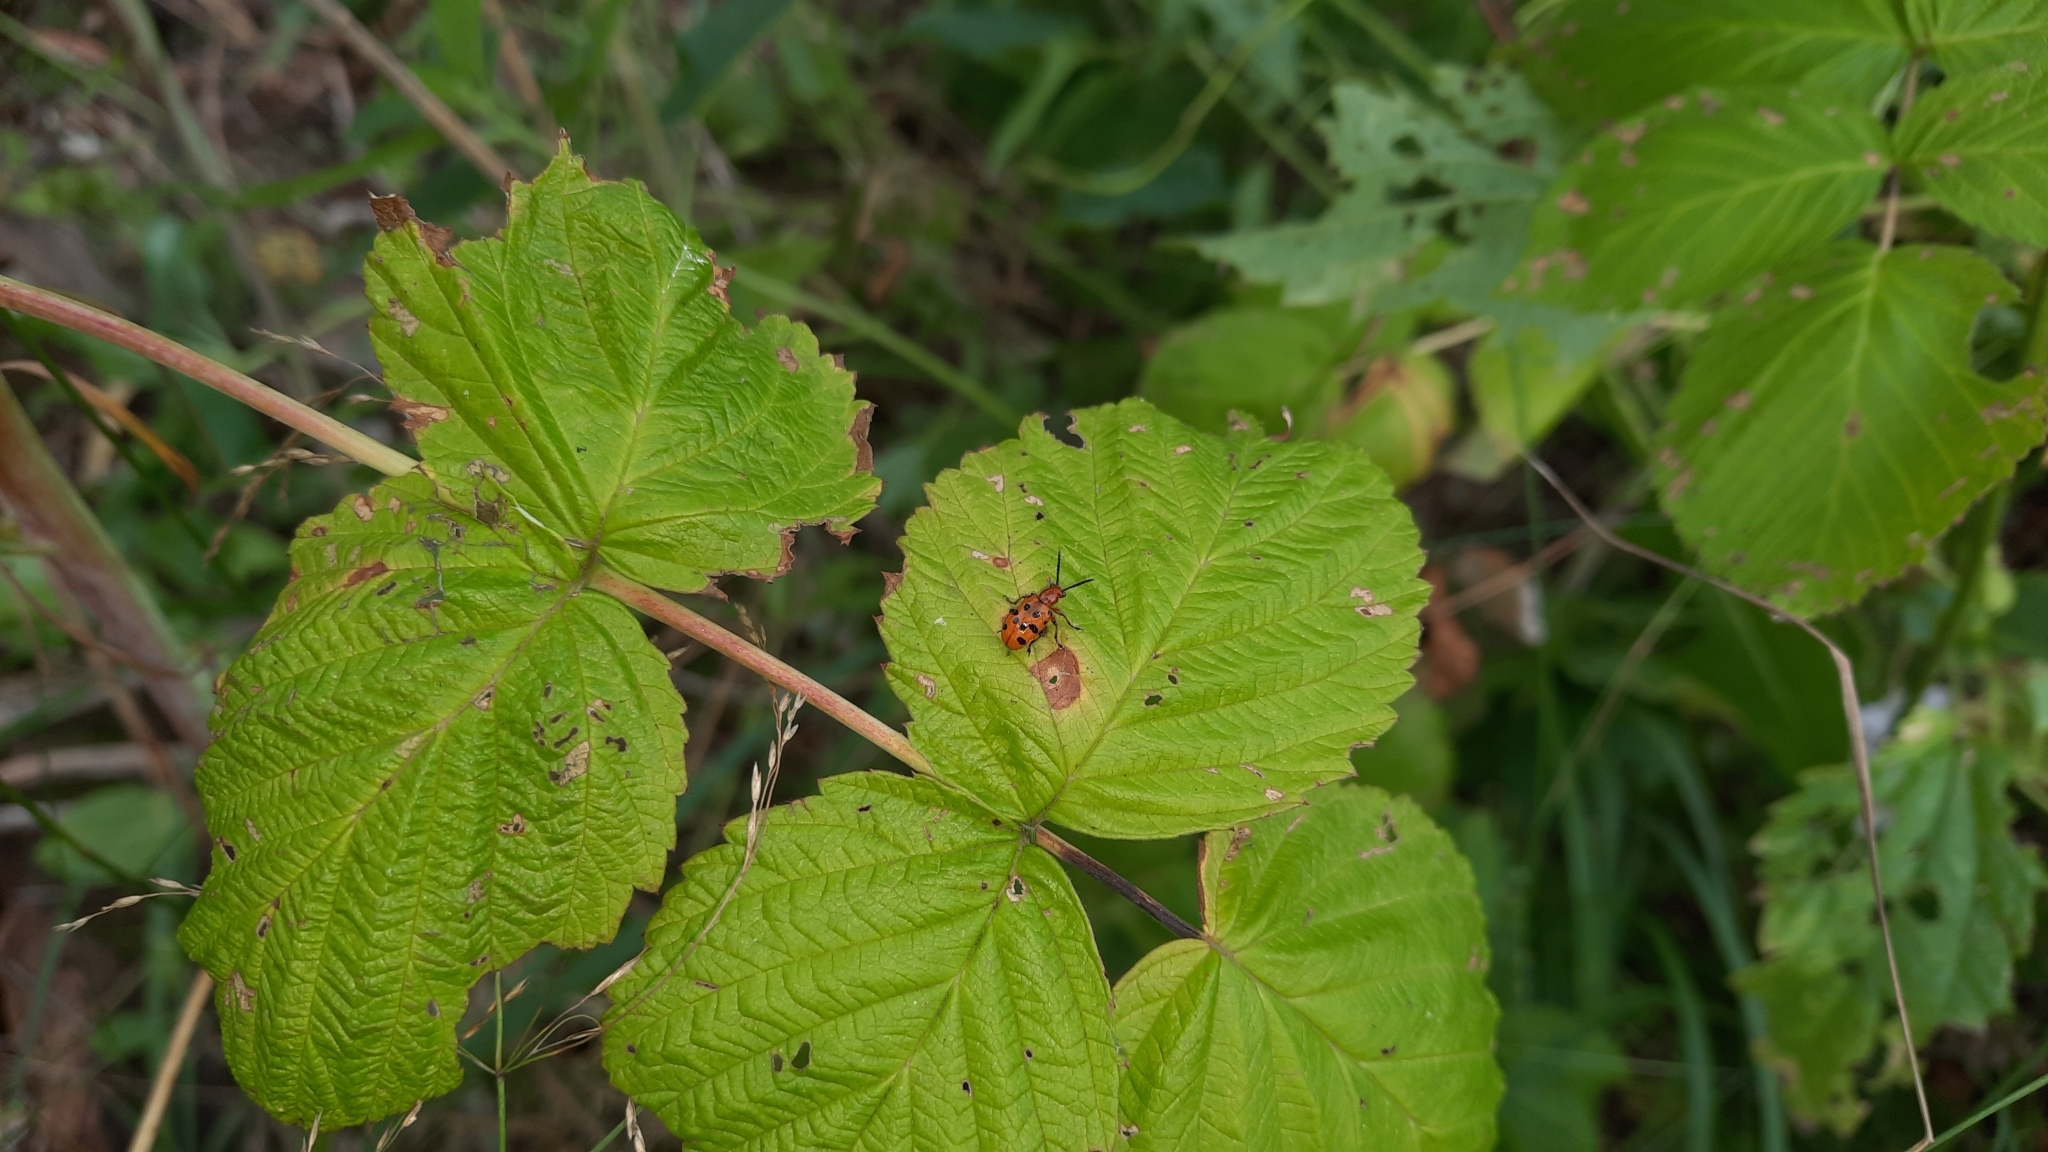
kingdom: Animalia
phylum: Arthropoda
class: Insecta
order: Coleoptera
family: Chrysomelidae
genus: Crioceris
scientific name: Crioceris duodecimpunctata
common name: Twelve-spotted asparagus beetle
